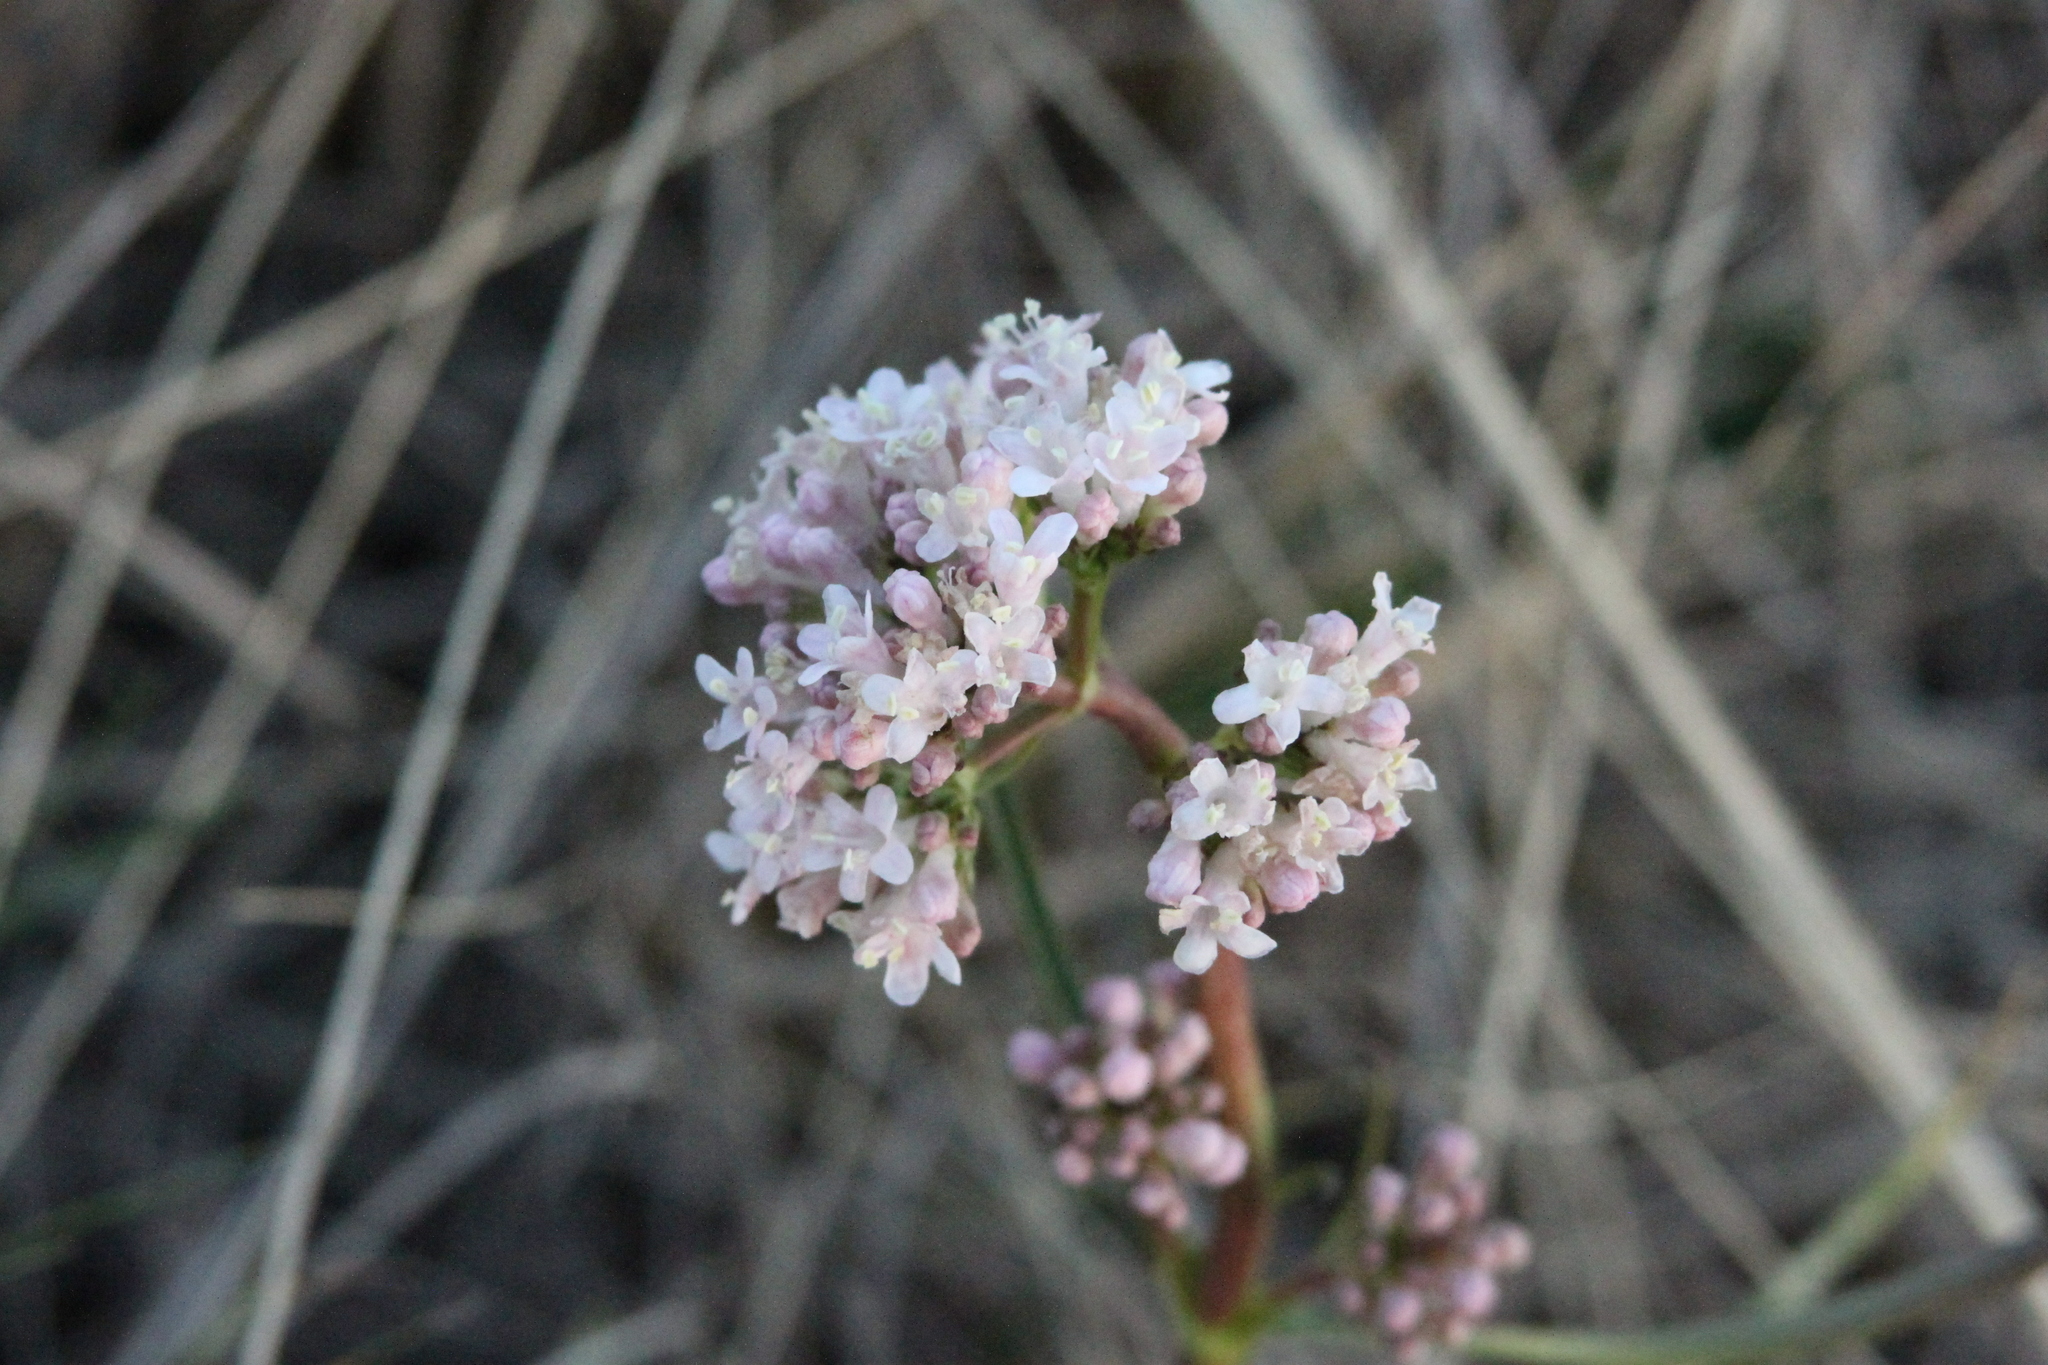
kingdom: Plantae
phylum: Tracheophyta
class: Magnoliopsida
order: Dipsacales
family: Caprifoliaceae
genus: Valeriana
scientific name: Valeriana tuberosa
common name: Tuberous valerian
